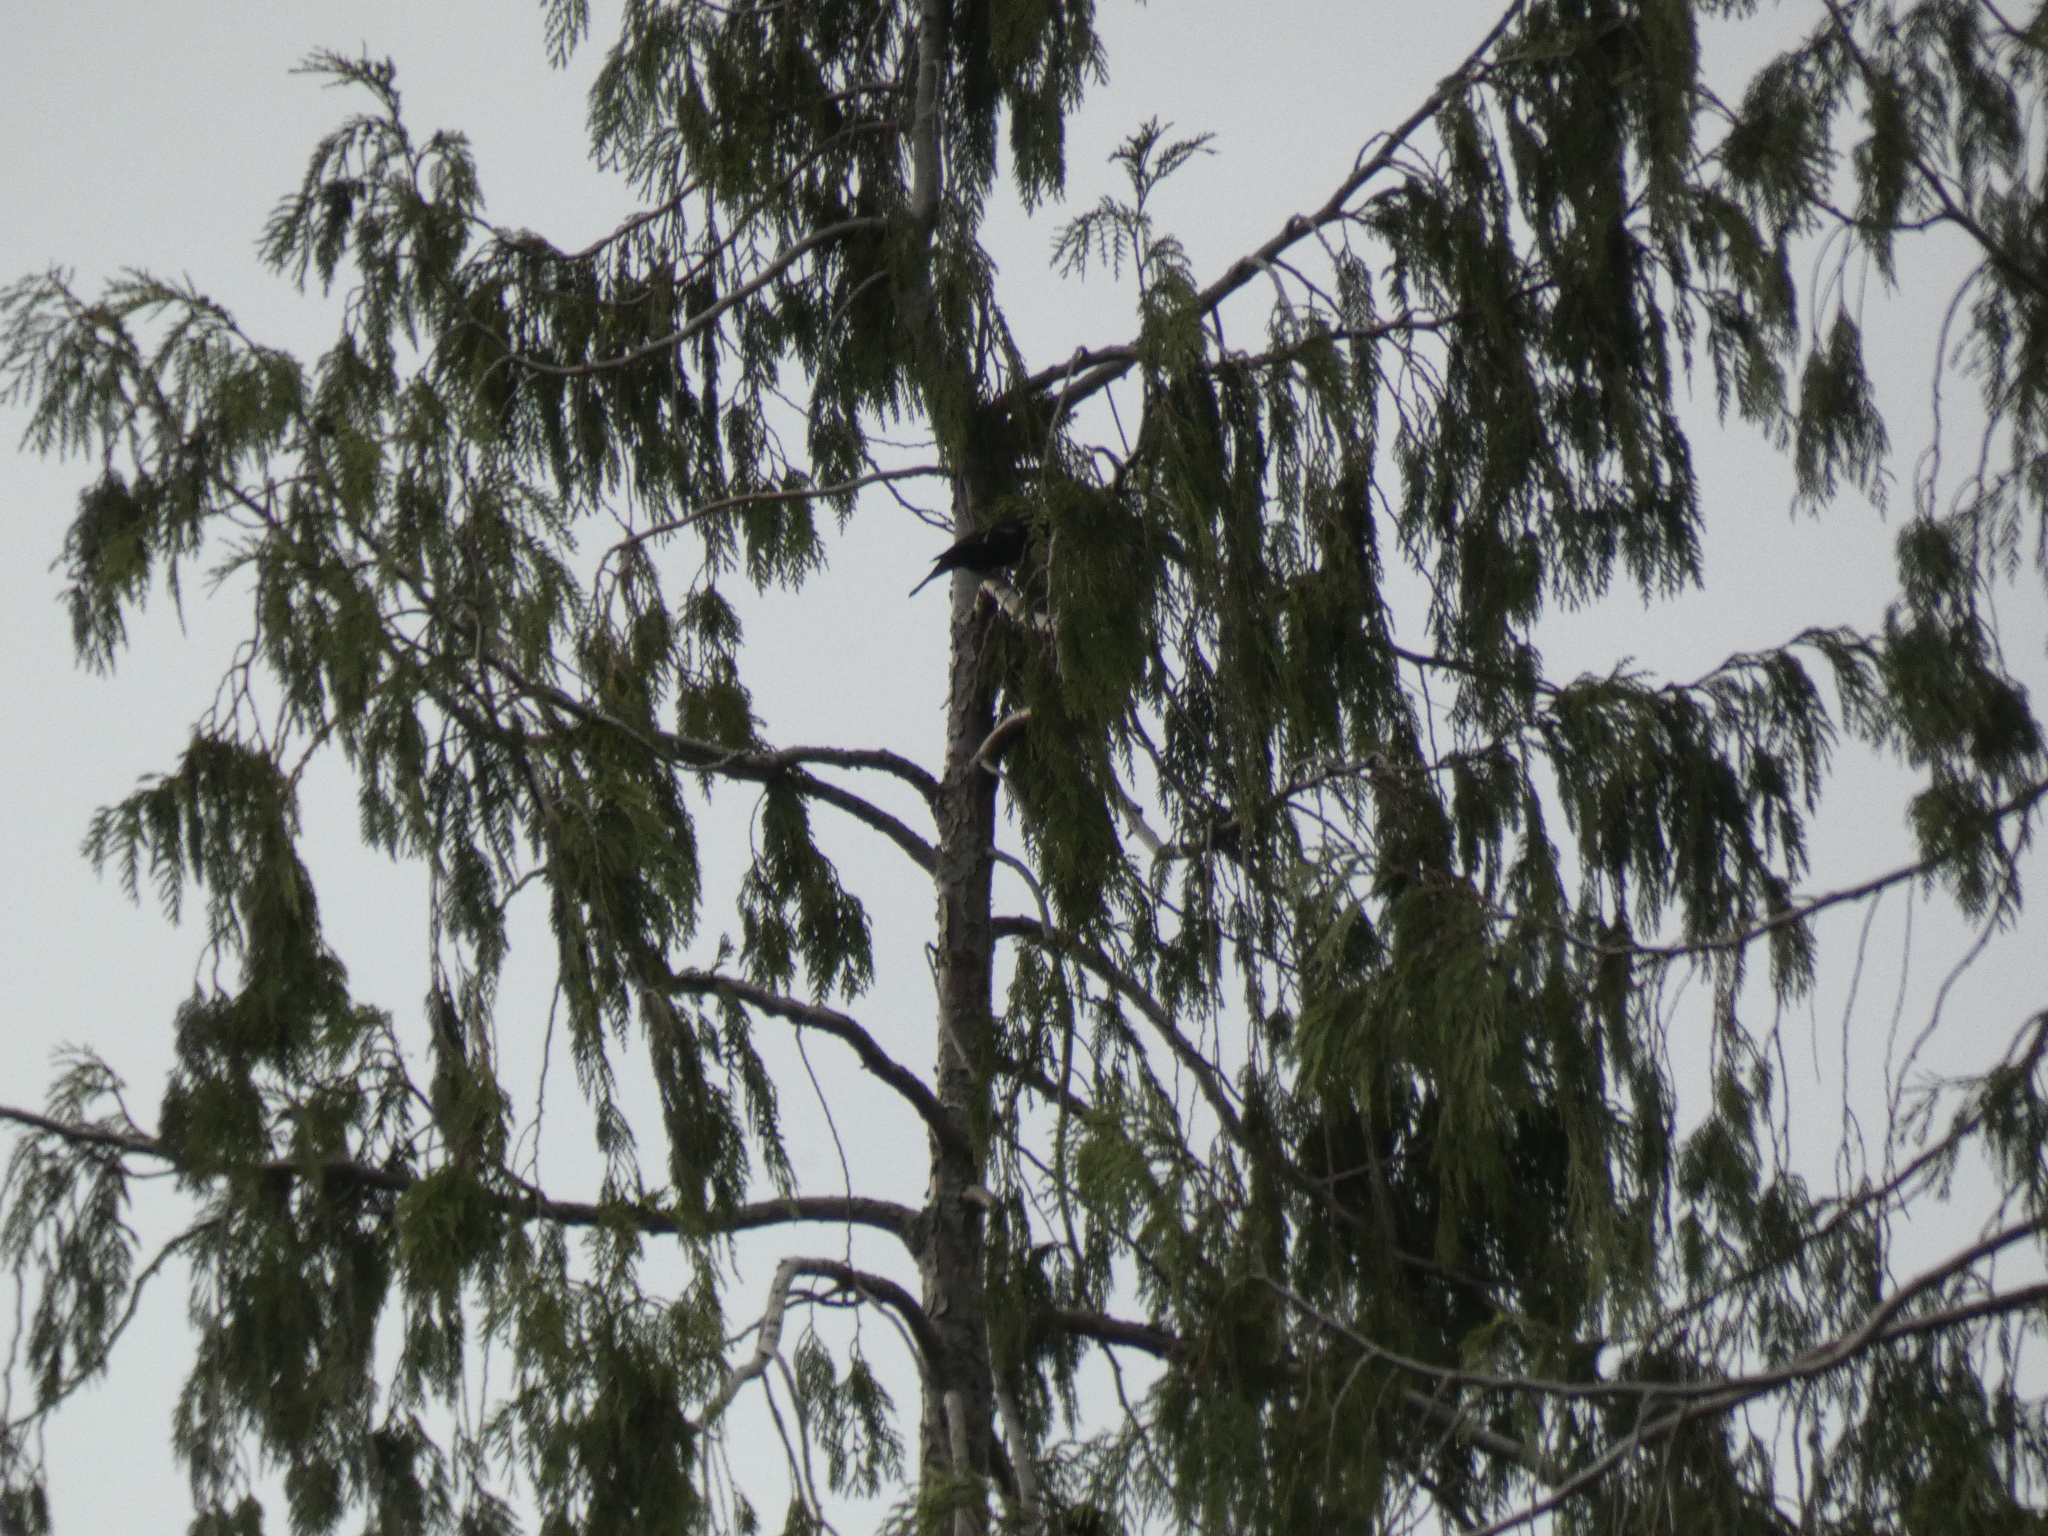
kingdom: Animalia
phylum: Chordata
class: Aves
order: Passeriformes
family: Icteridae
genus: Agelaius
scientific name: Agelaius phoeniceus
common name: Red-winged blackbird
